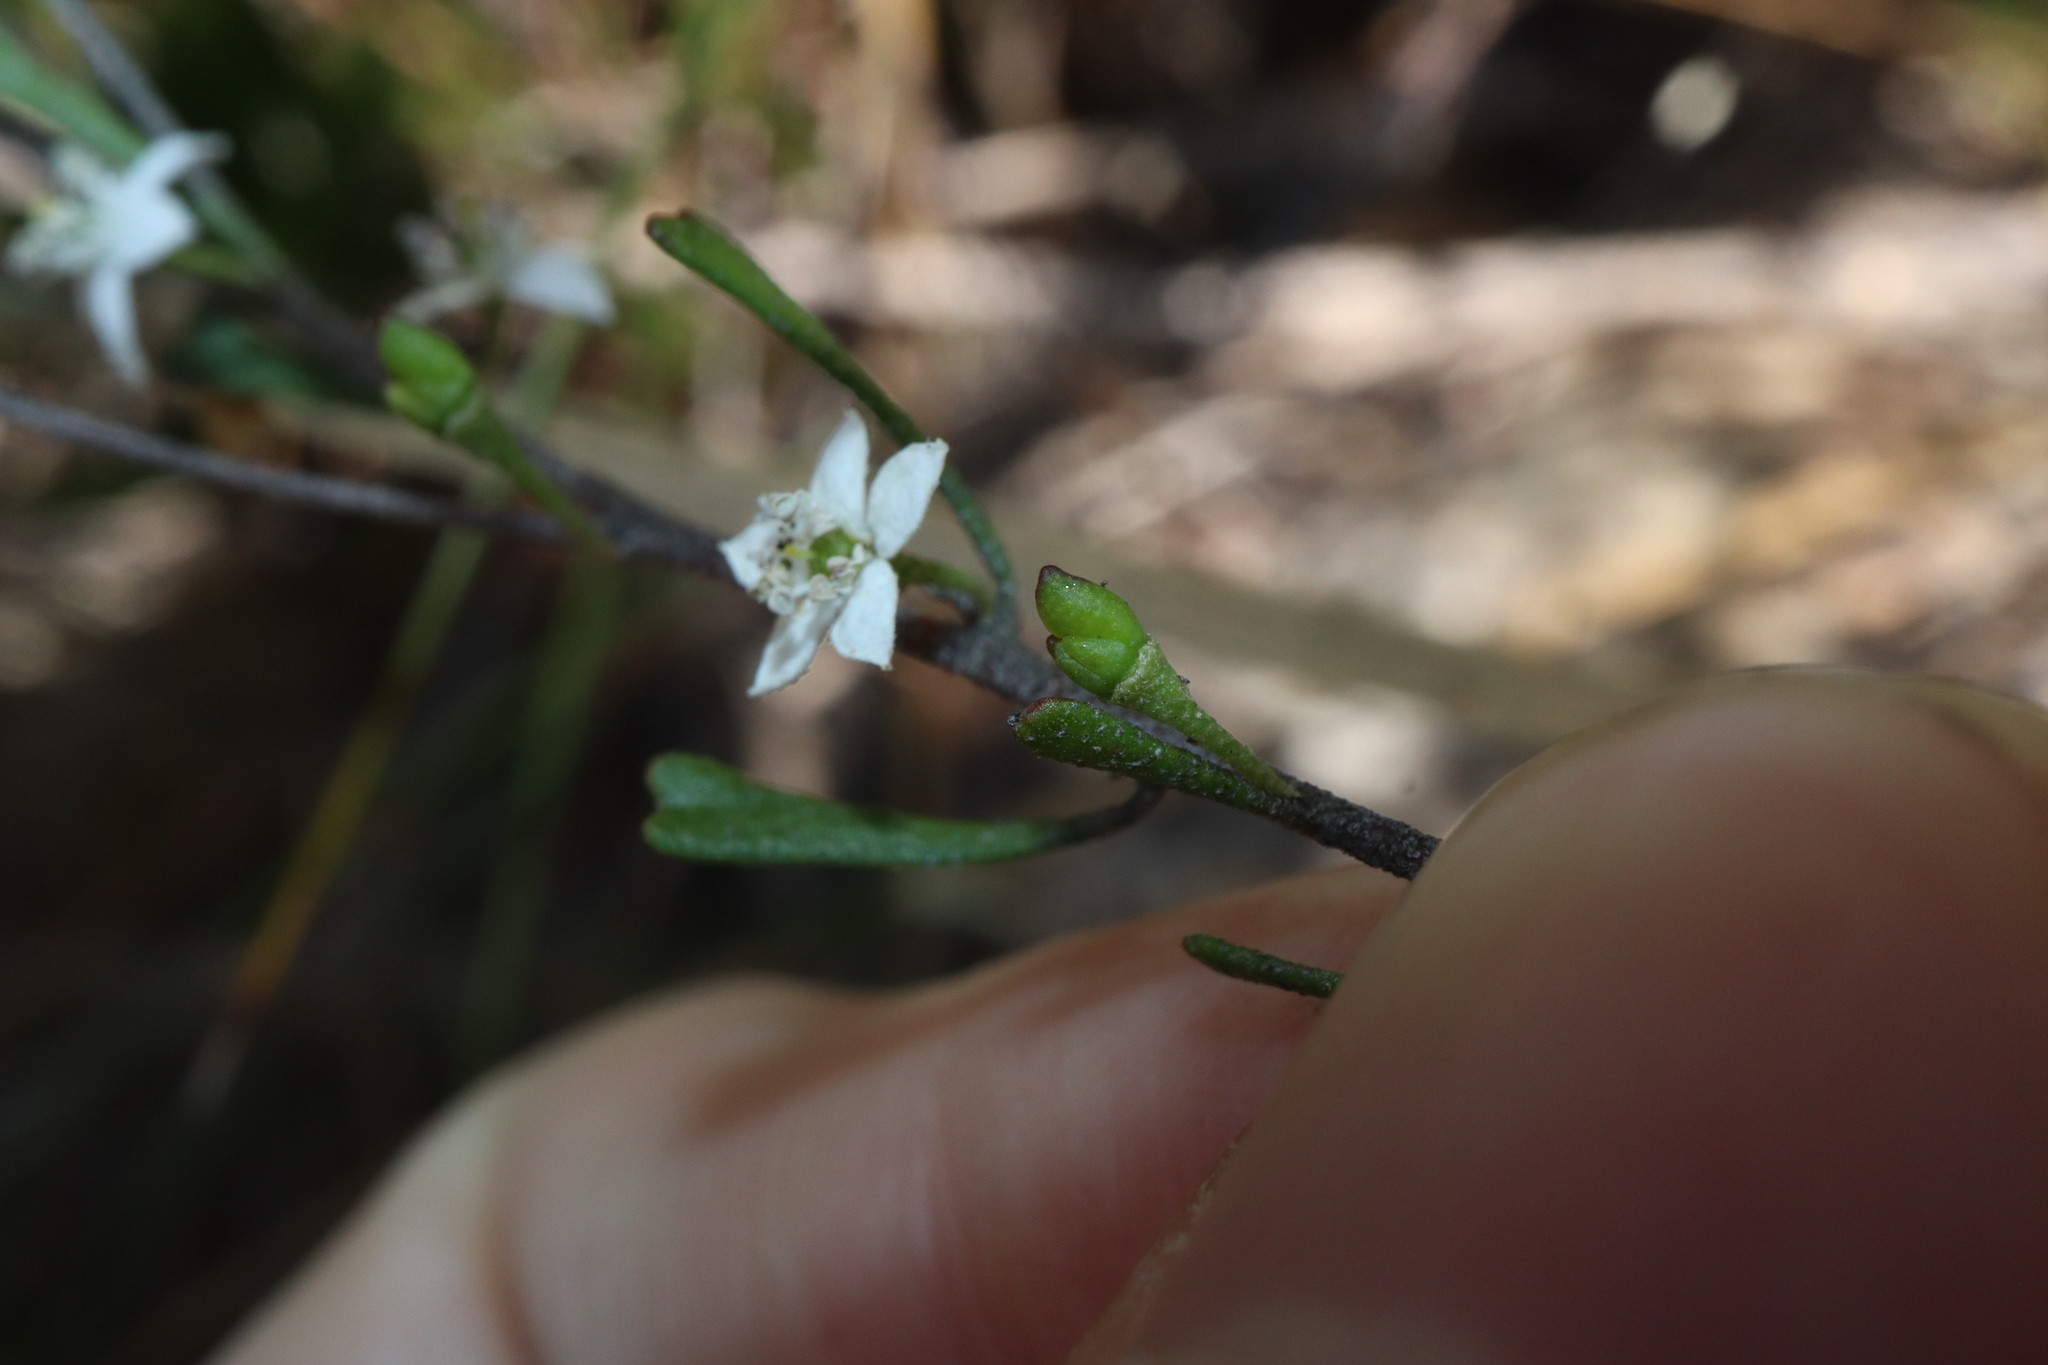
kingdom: Plantae
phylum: Tracheophyta
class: Magnoliopsida
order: Sapindales
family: Rutaceae
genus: Rhadinothamnus
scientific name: Rhadinothamnus rudis
